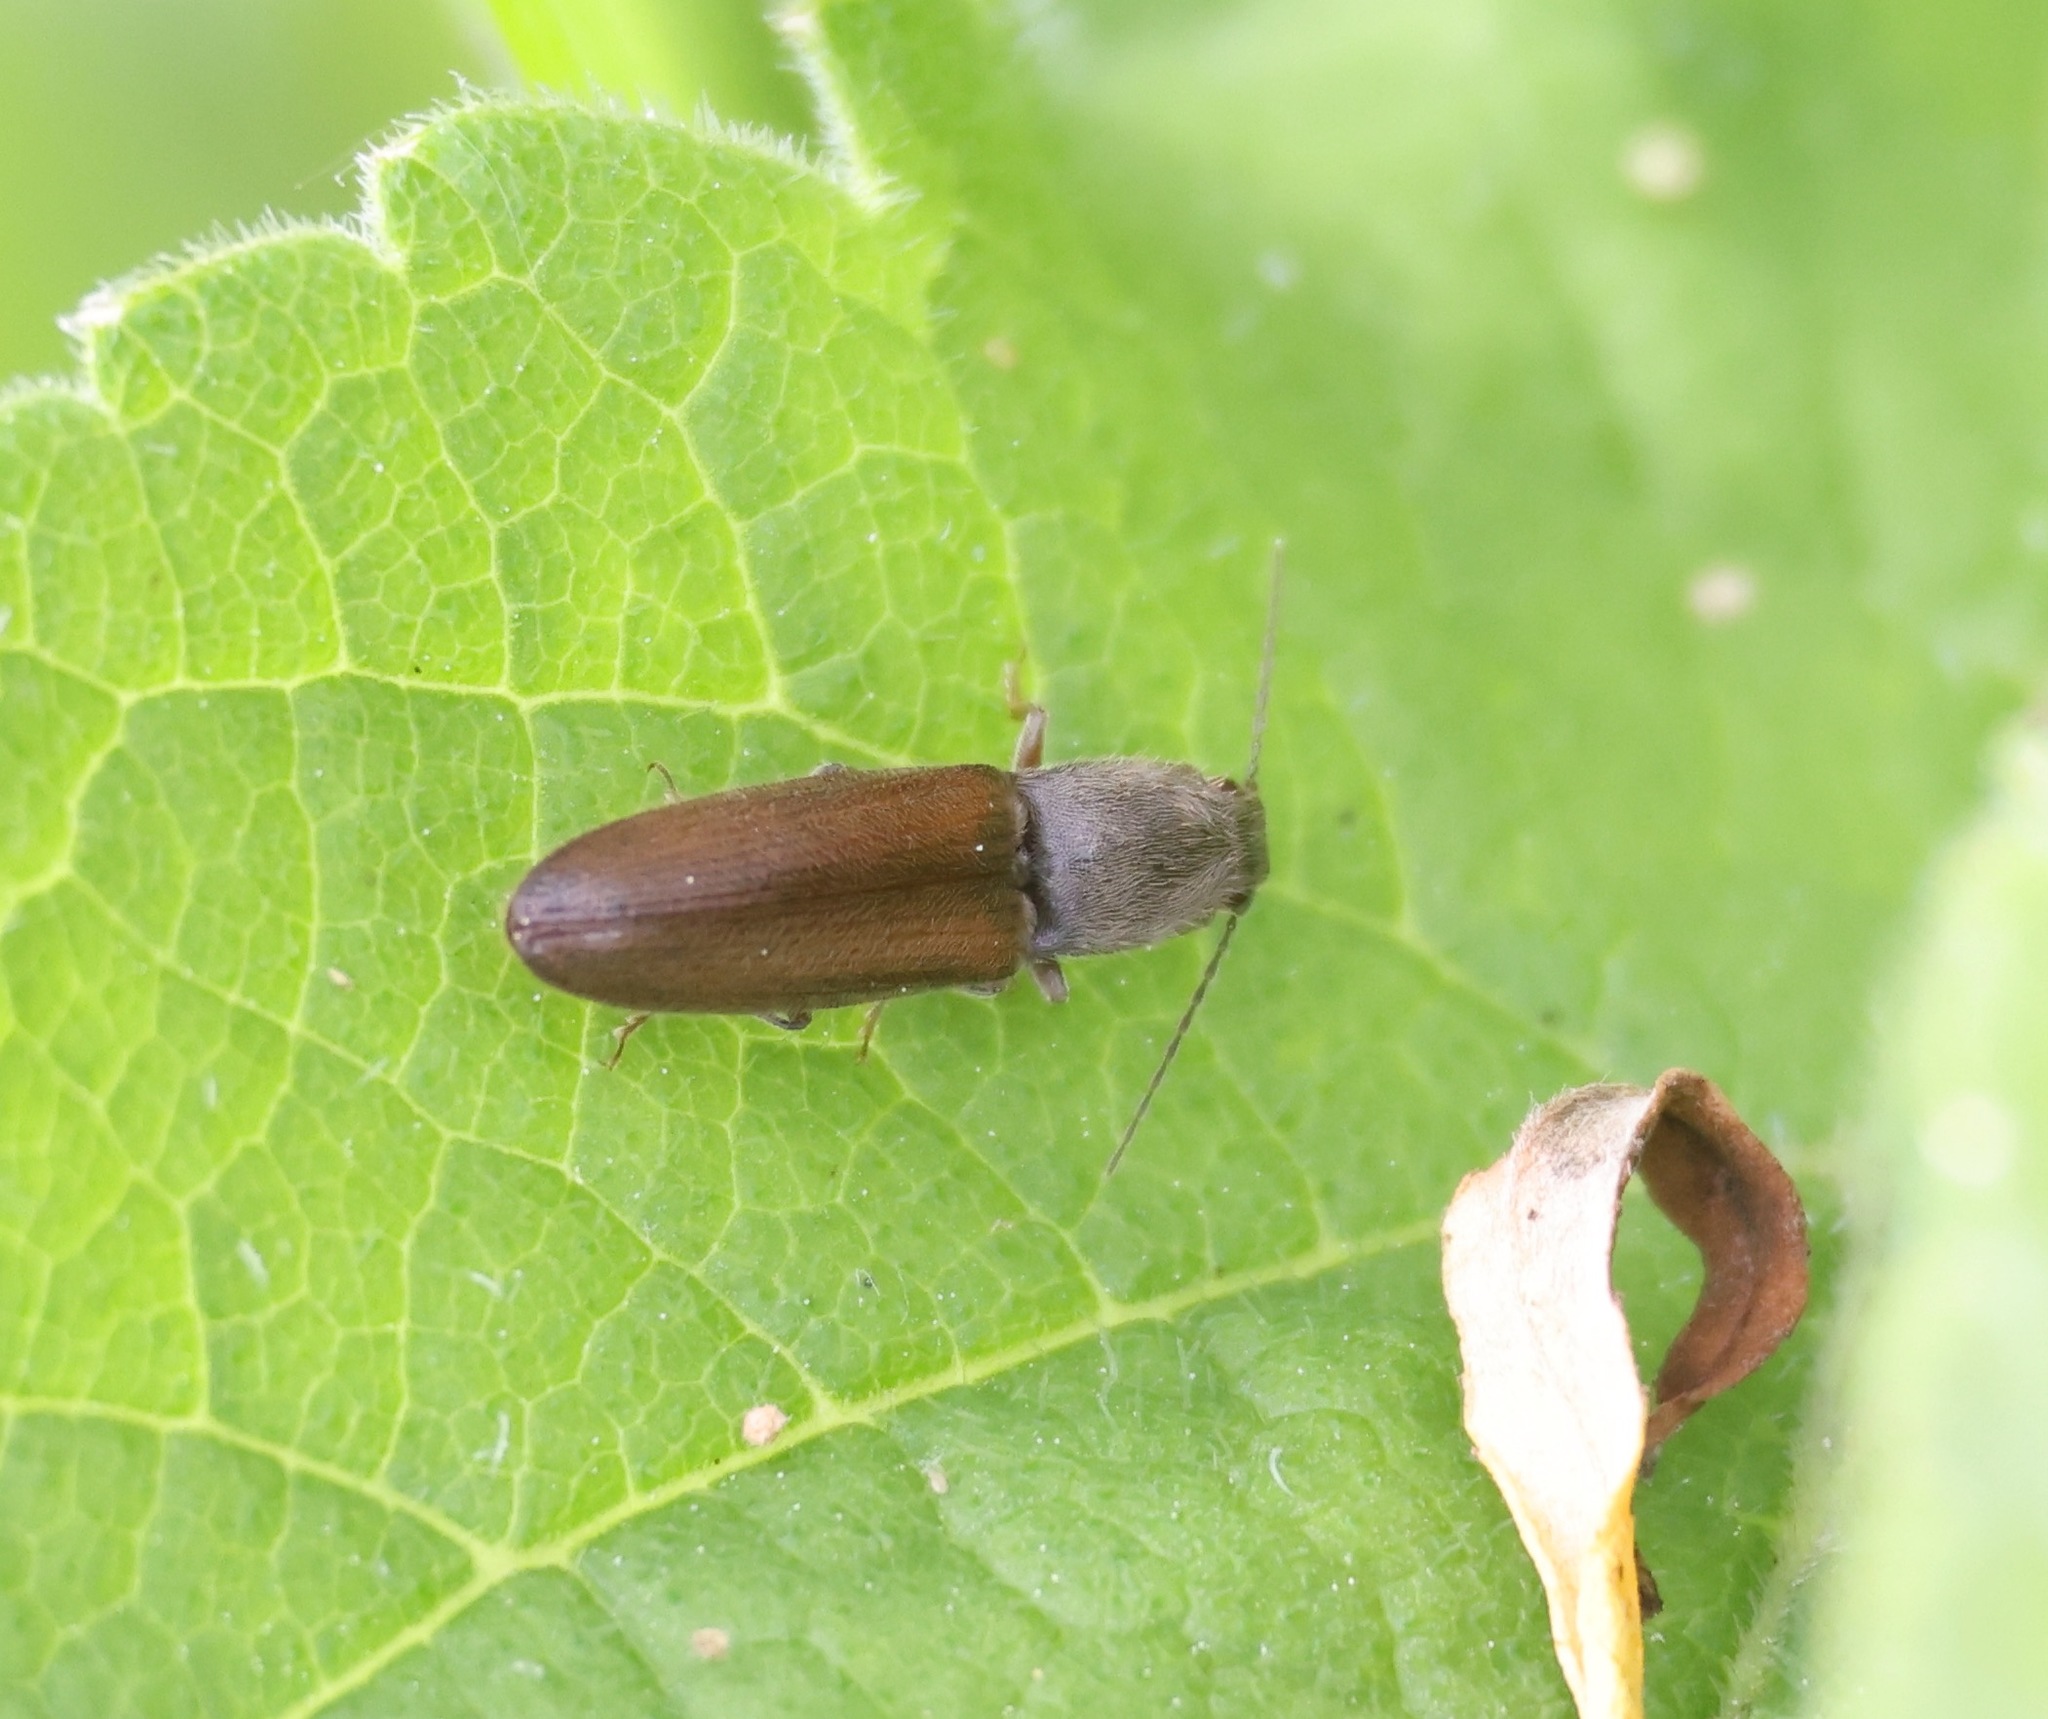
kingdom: Animalia
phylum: Arthropoda
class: Insecta
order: Coleoptera
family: Elateridae
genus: Athous
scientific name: Athous haemorrhoidalis
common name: Red-brown click beetle
